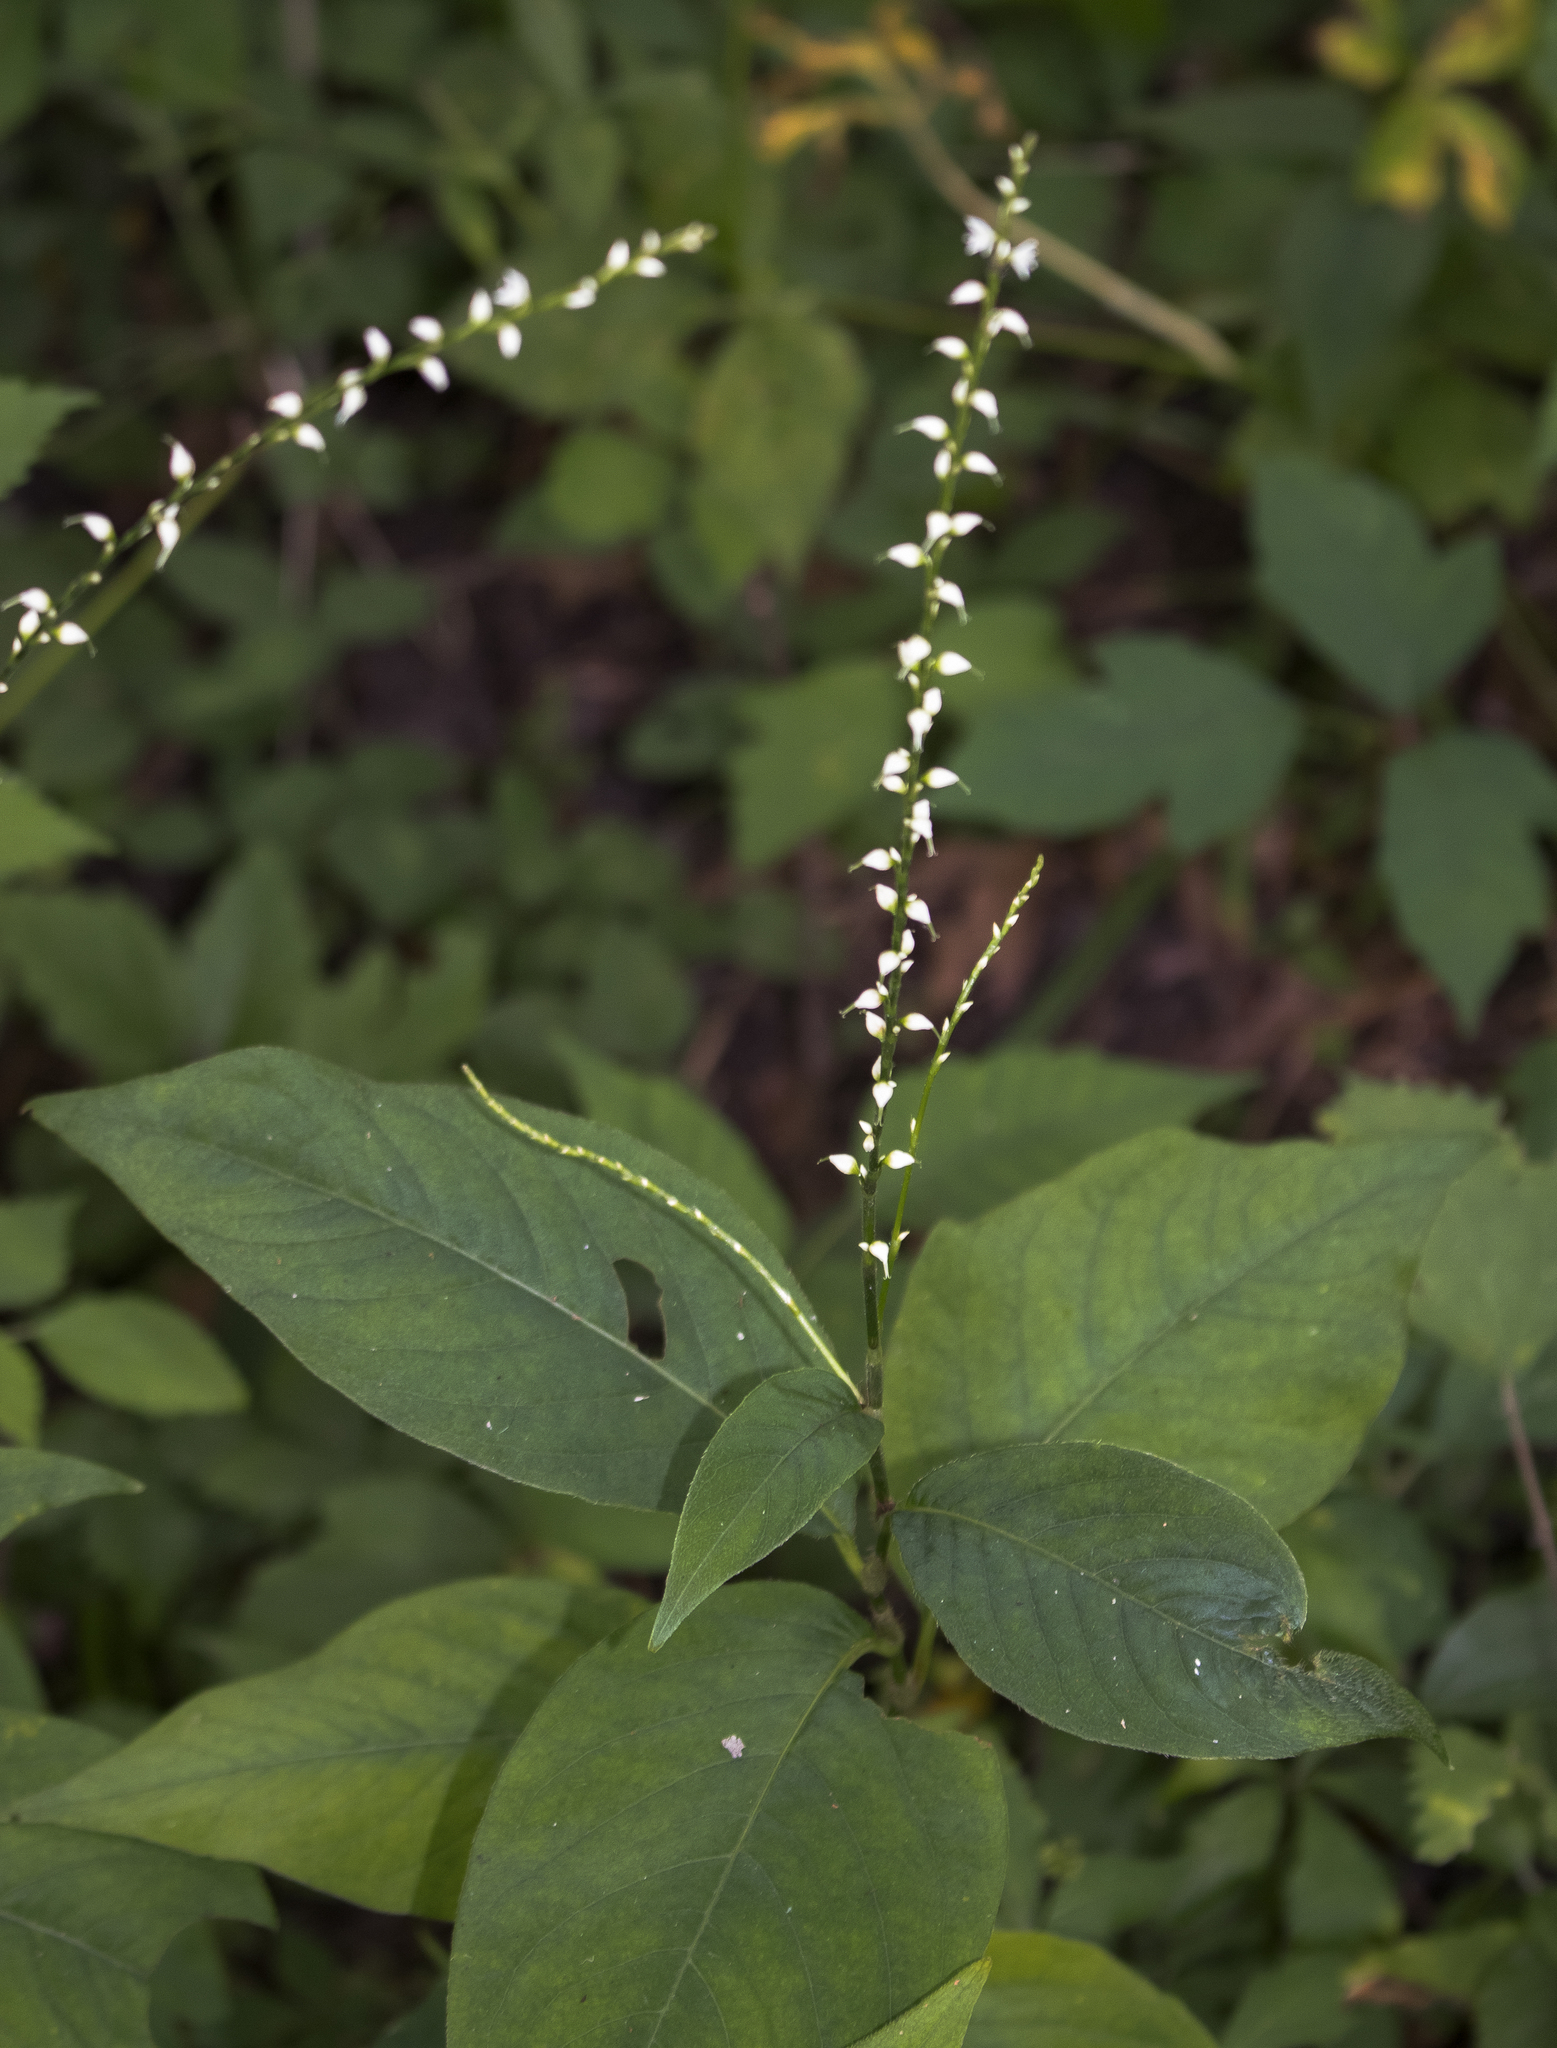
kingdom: Plantae
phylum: Tracheophyta
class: Magnoliopsida
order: Caryophyllales
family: Polygonaceae
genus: Persicaria
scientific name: Persicaria virginiana
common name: Jumpseed
